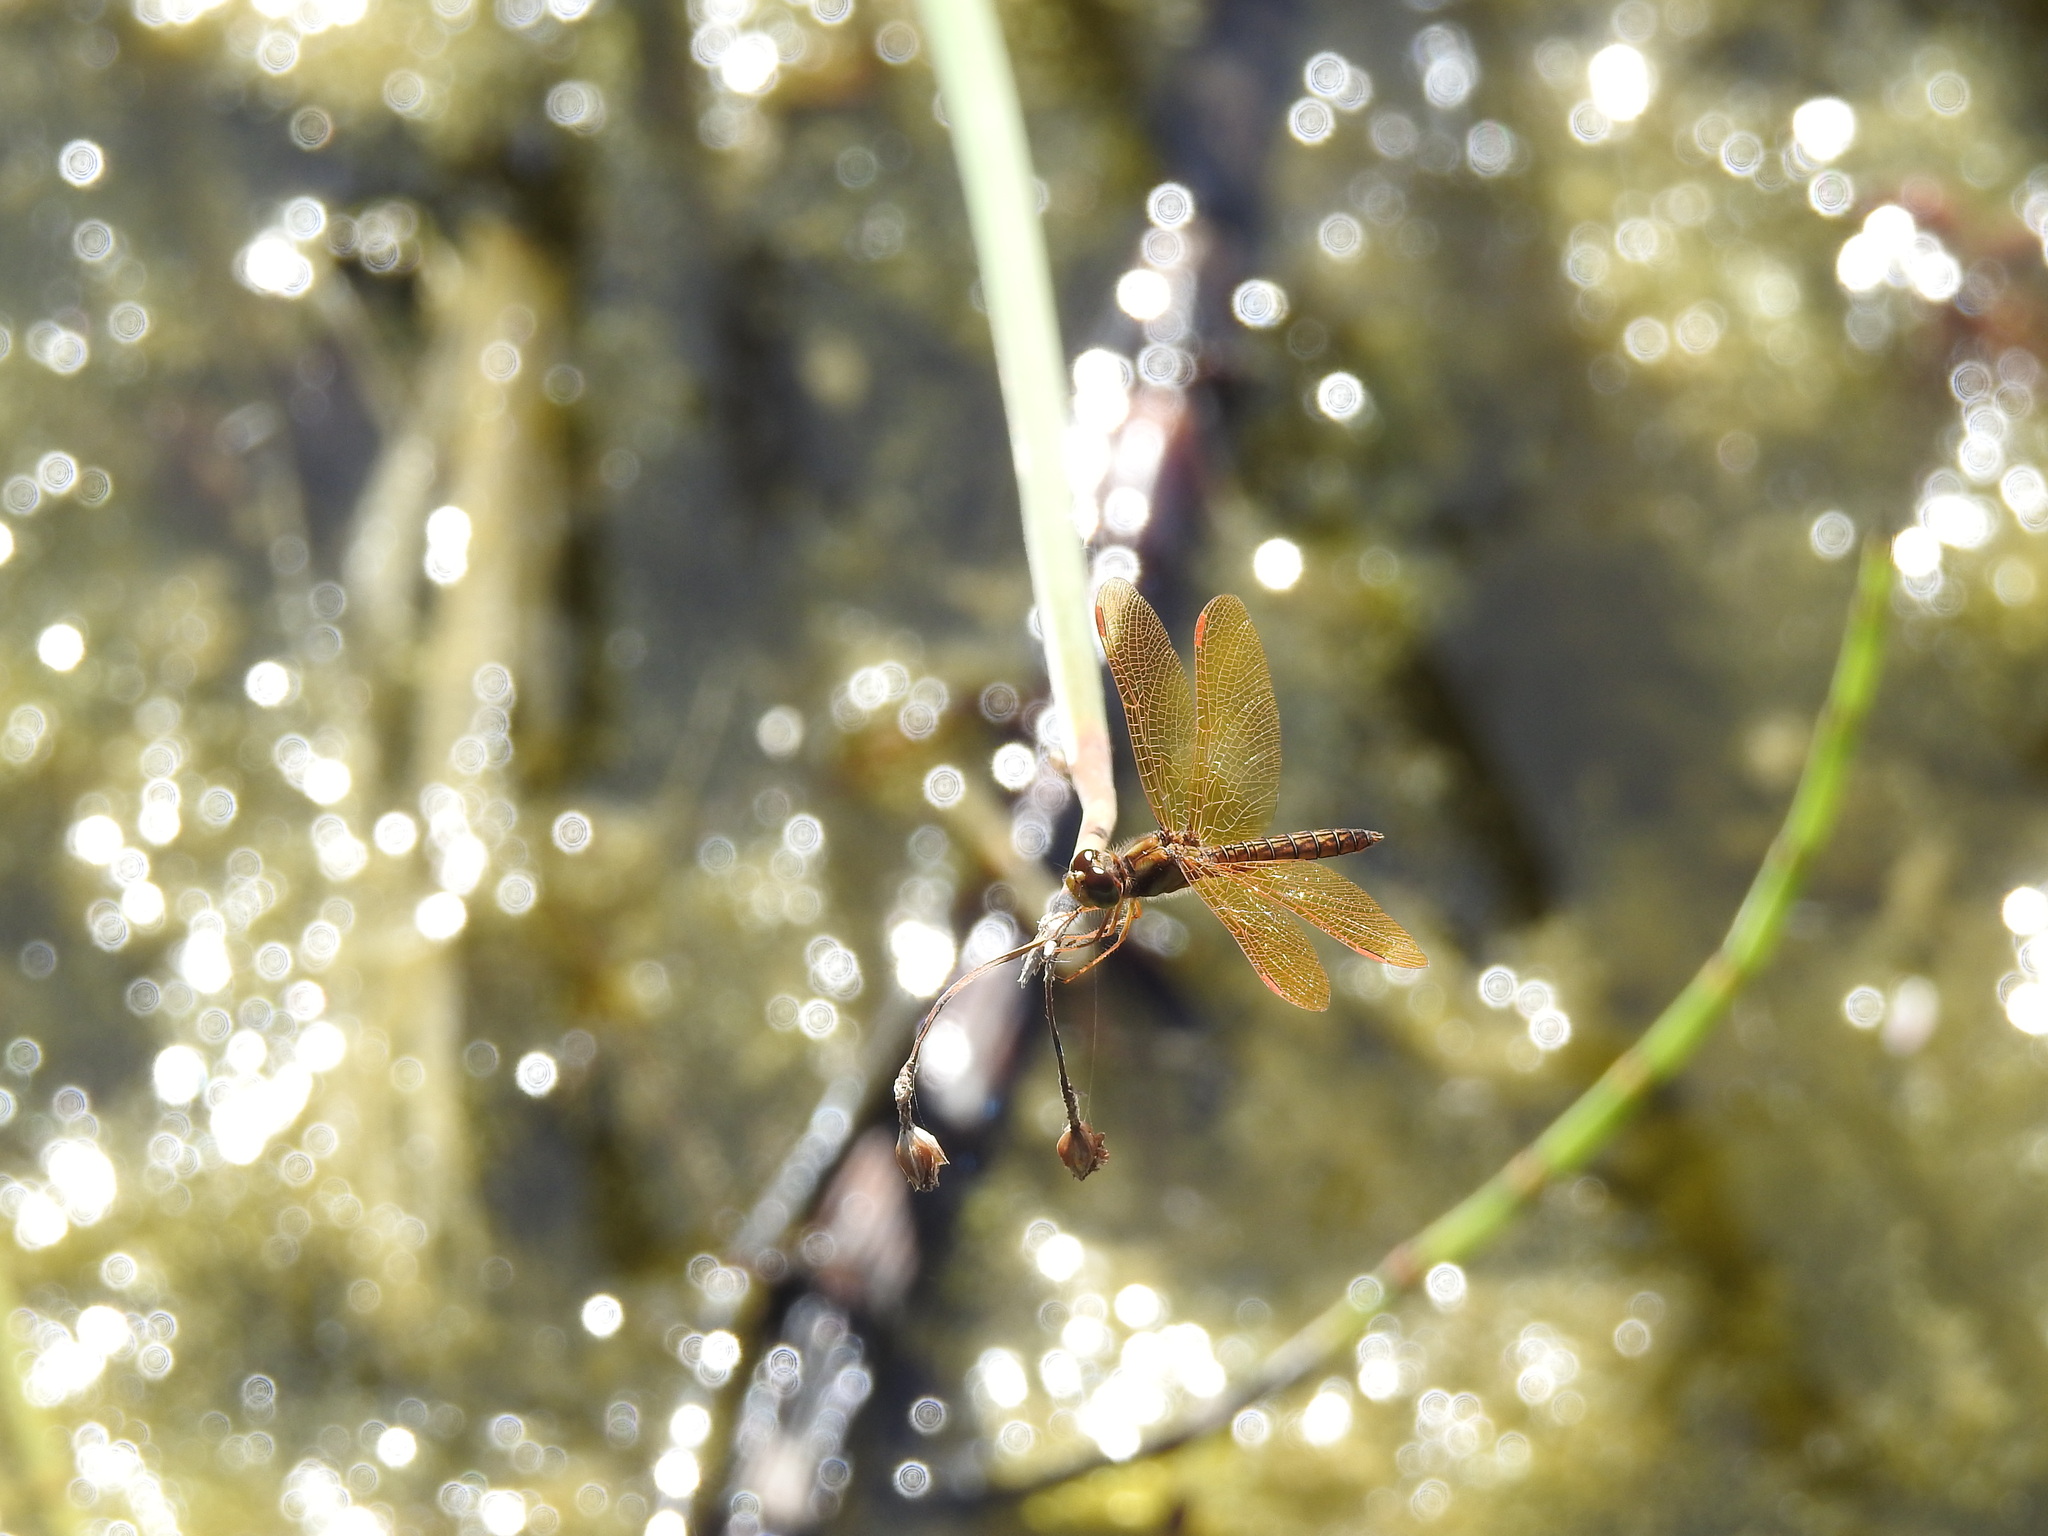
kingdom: Animalia
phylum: Arthropoda
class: Insecta
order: Odonata
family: Libellulidae
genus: Perithemis
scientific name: Perithemis tenera
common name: Eastern amberwing
